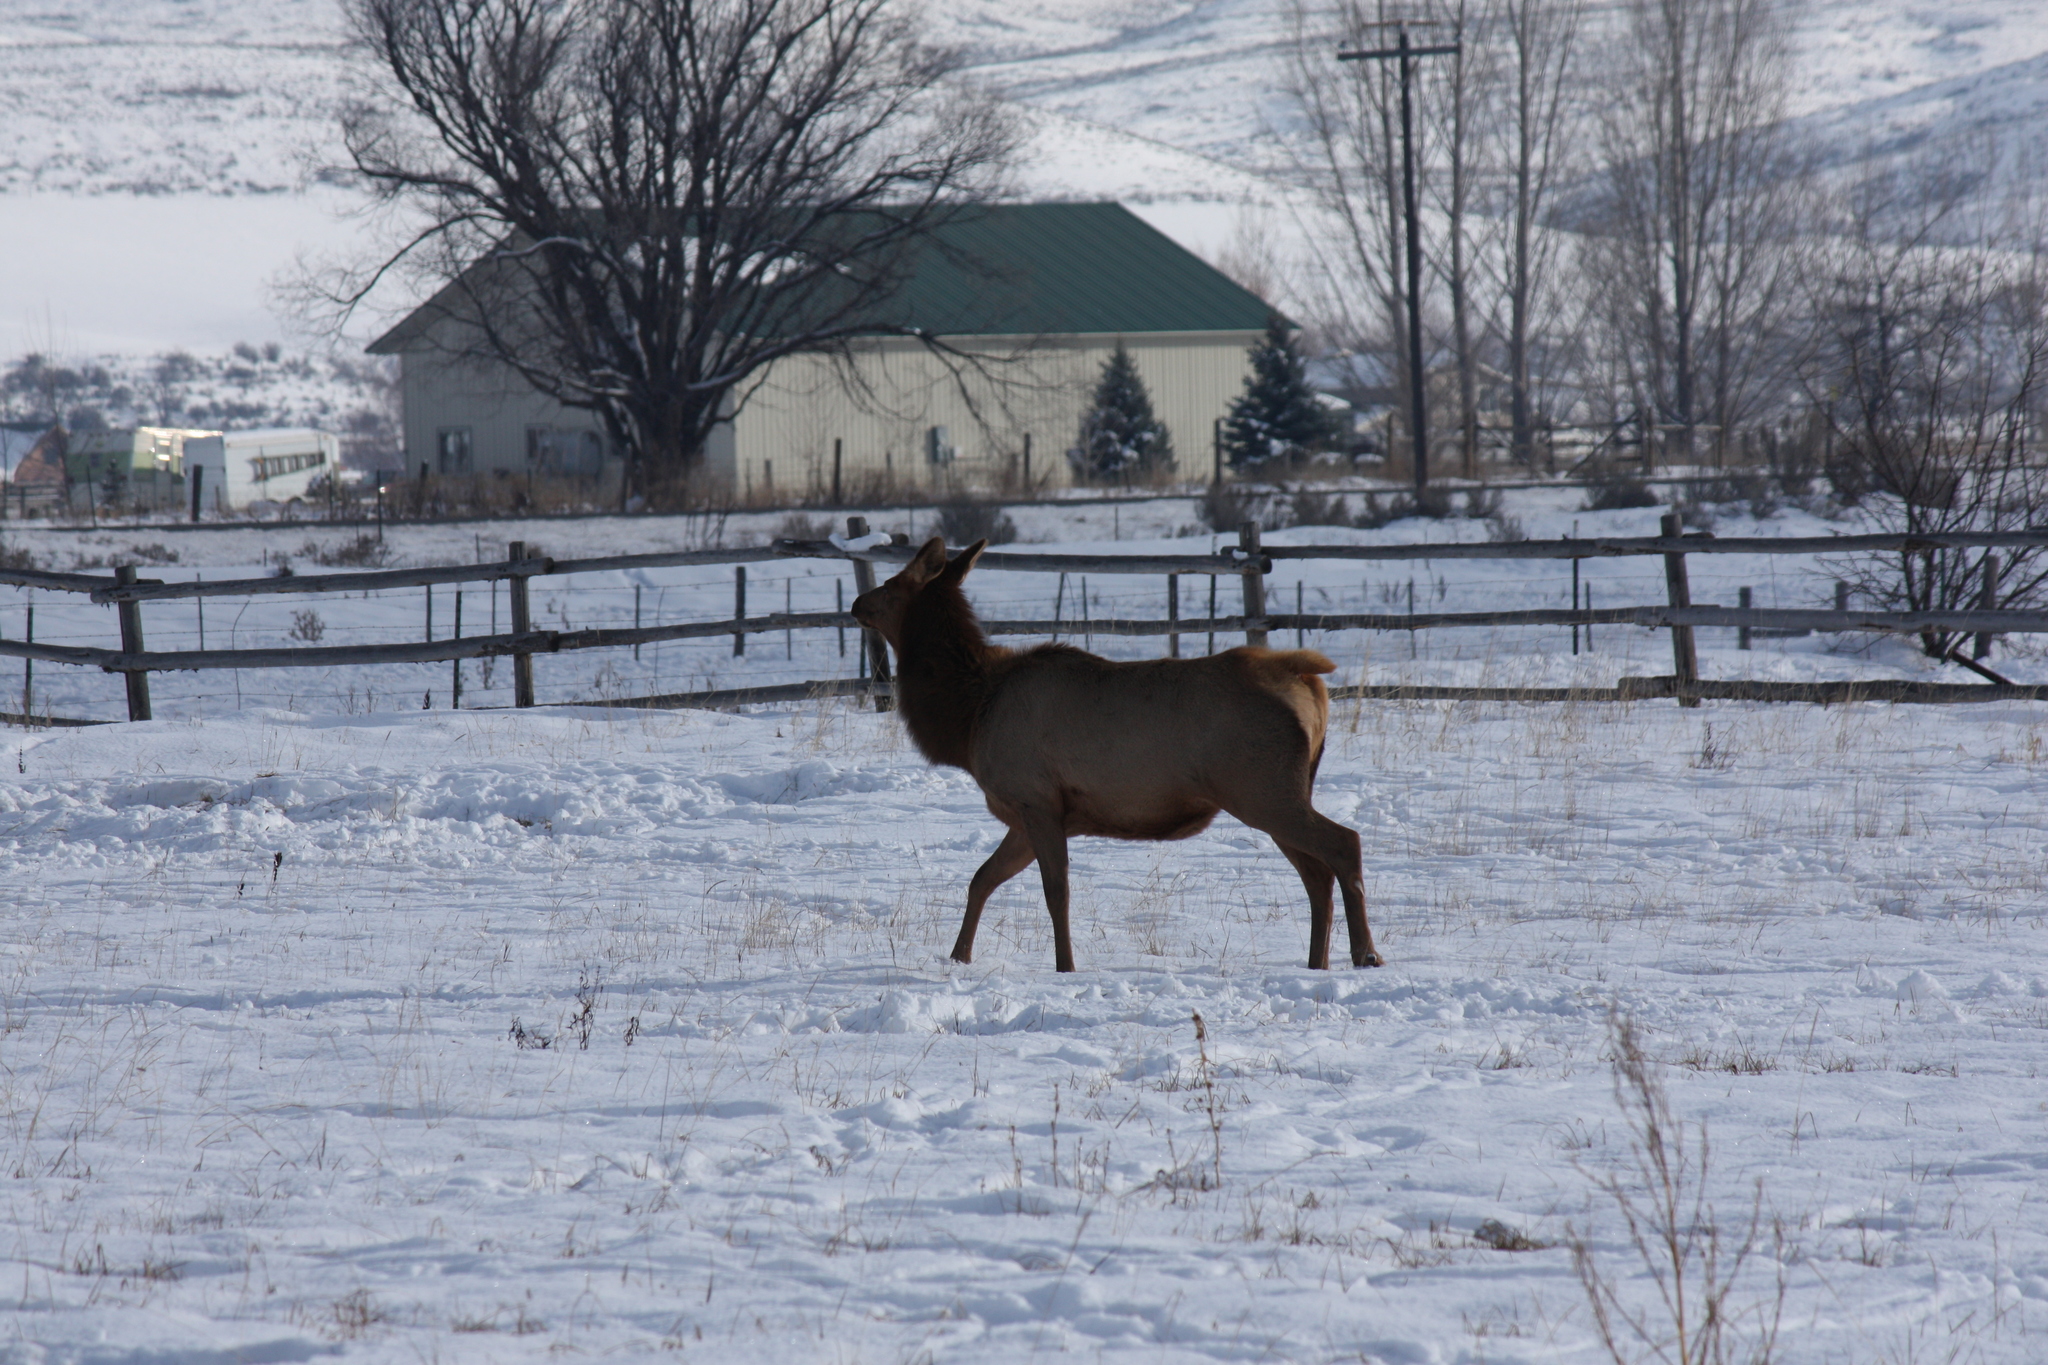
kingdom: Animalia
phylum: Chordata
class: Mammalia
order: Artiodactyla
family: Cervidae
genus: Cervus
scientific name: Cervus elaphus
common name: Red deer
